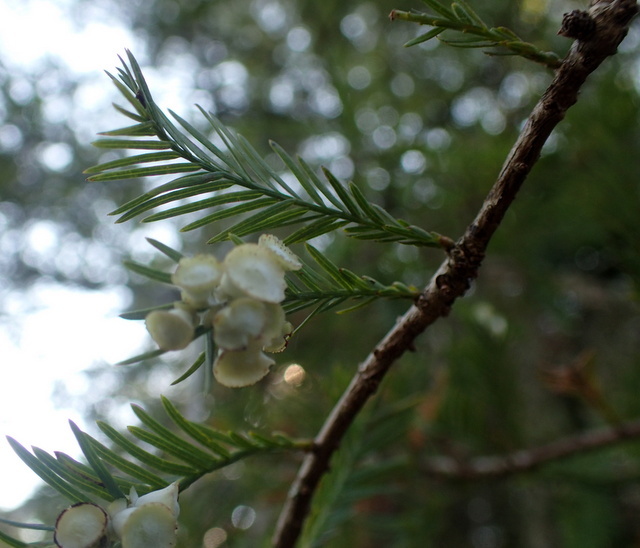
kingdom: Animalia
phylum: Arthropoda
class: Insecta
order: Diptera
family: Cecidomyiidae
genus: Taxodiomyia
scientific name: Taxodiomyia cupressi
